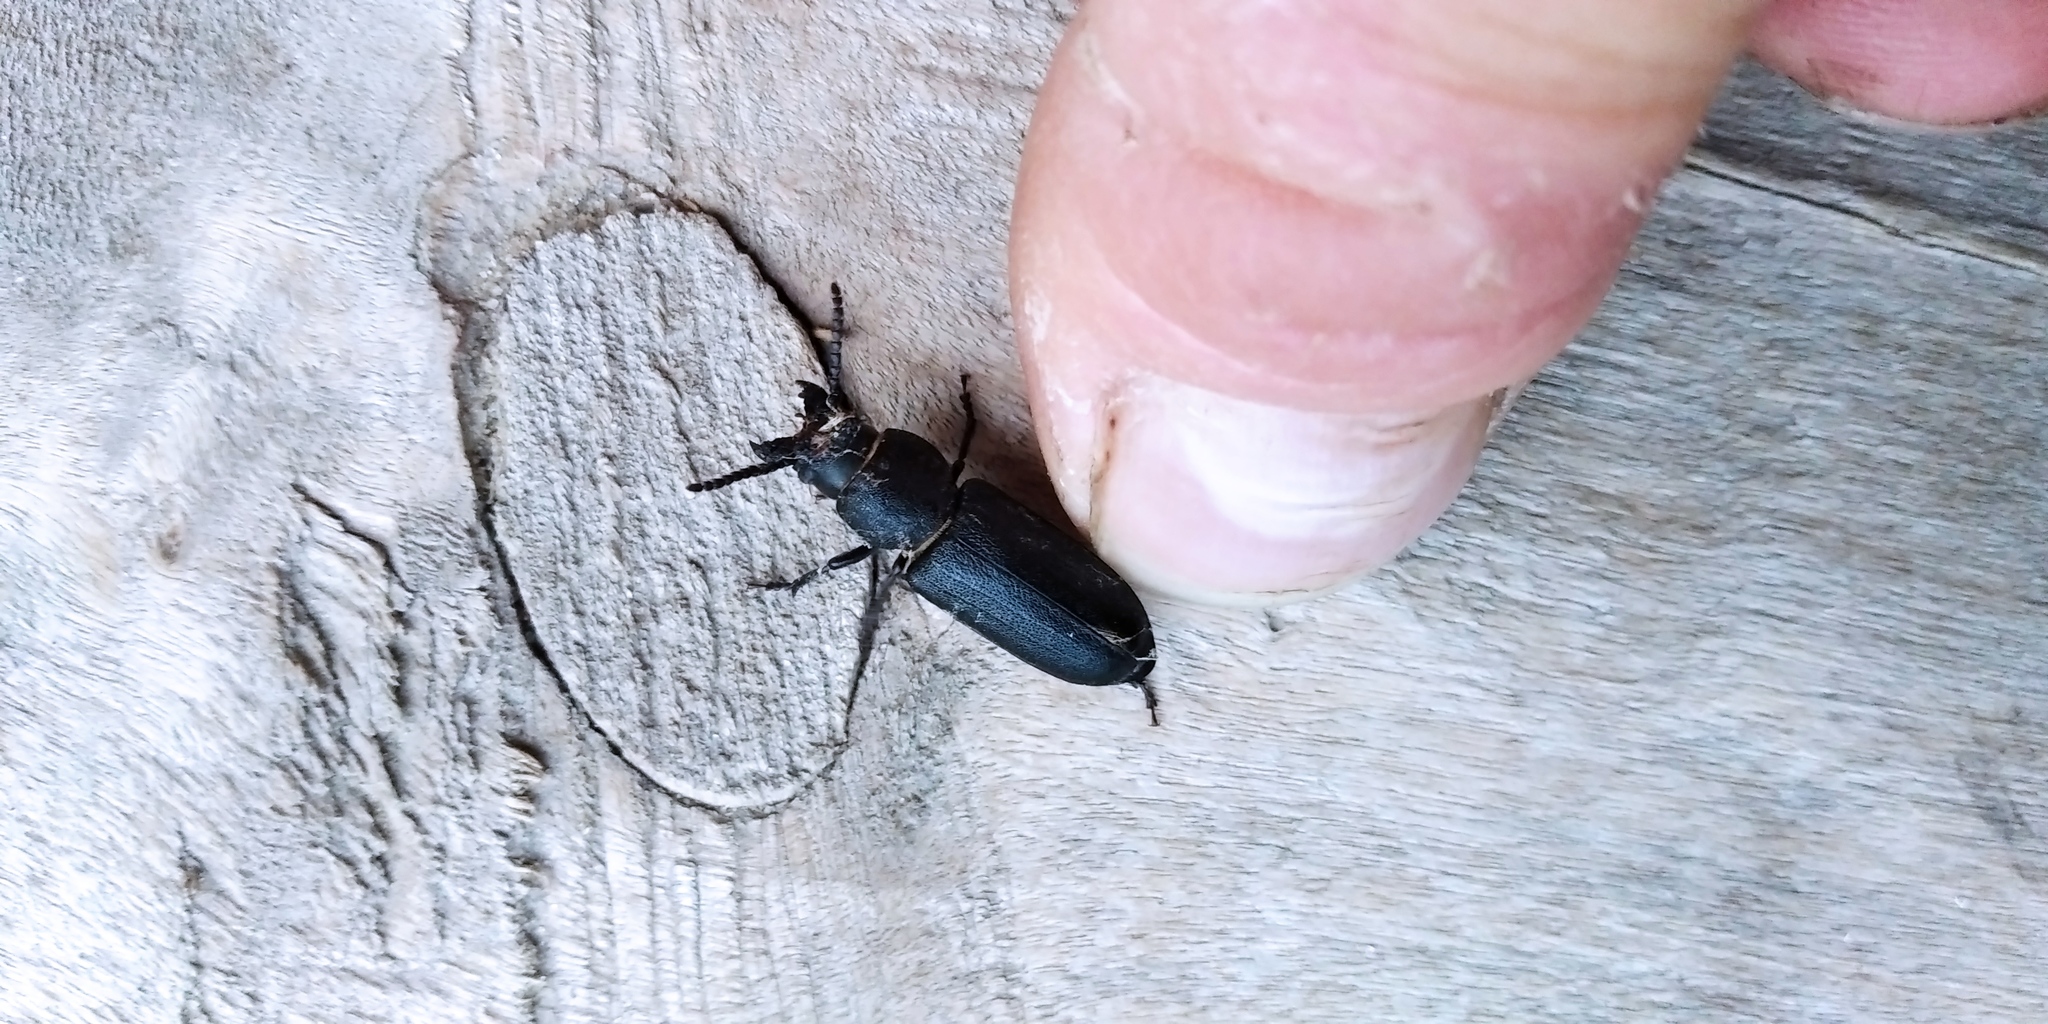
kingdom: Animalia
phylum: Arthropoda
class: Insecta
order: Coleoptera
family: Cerambycidae
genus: Spondylis
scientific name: Spondylis buprestoides
